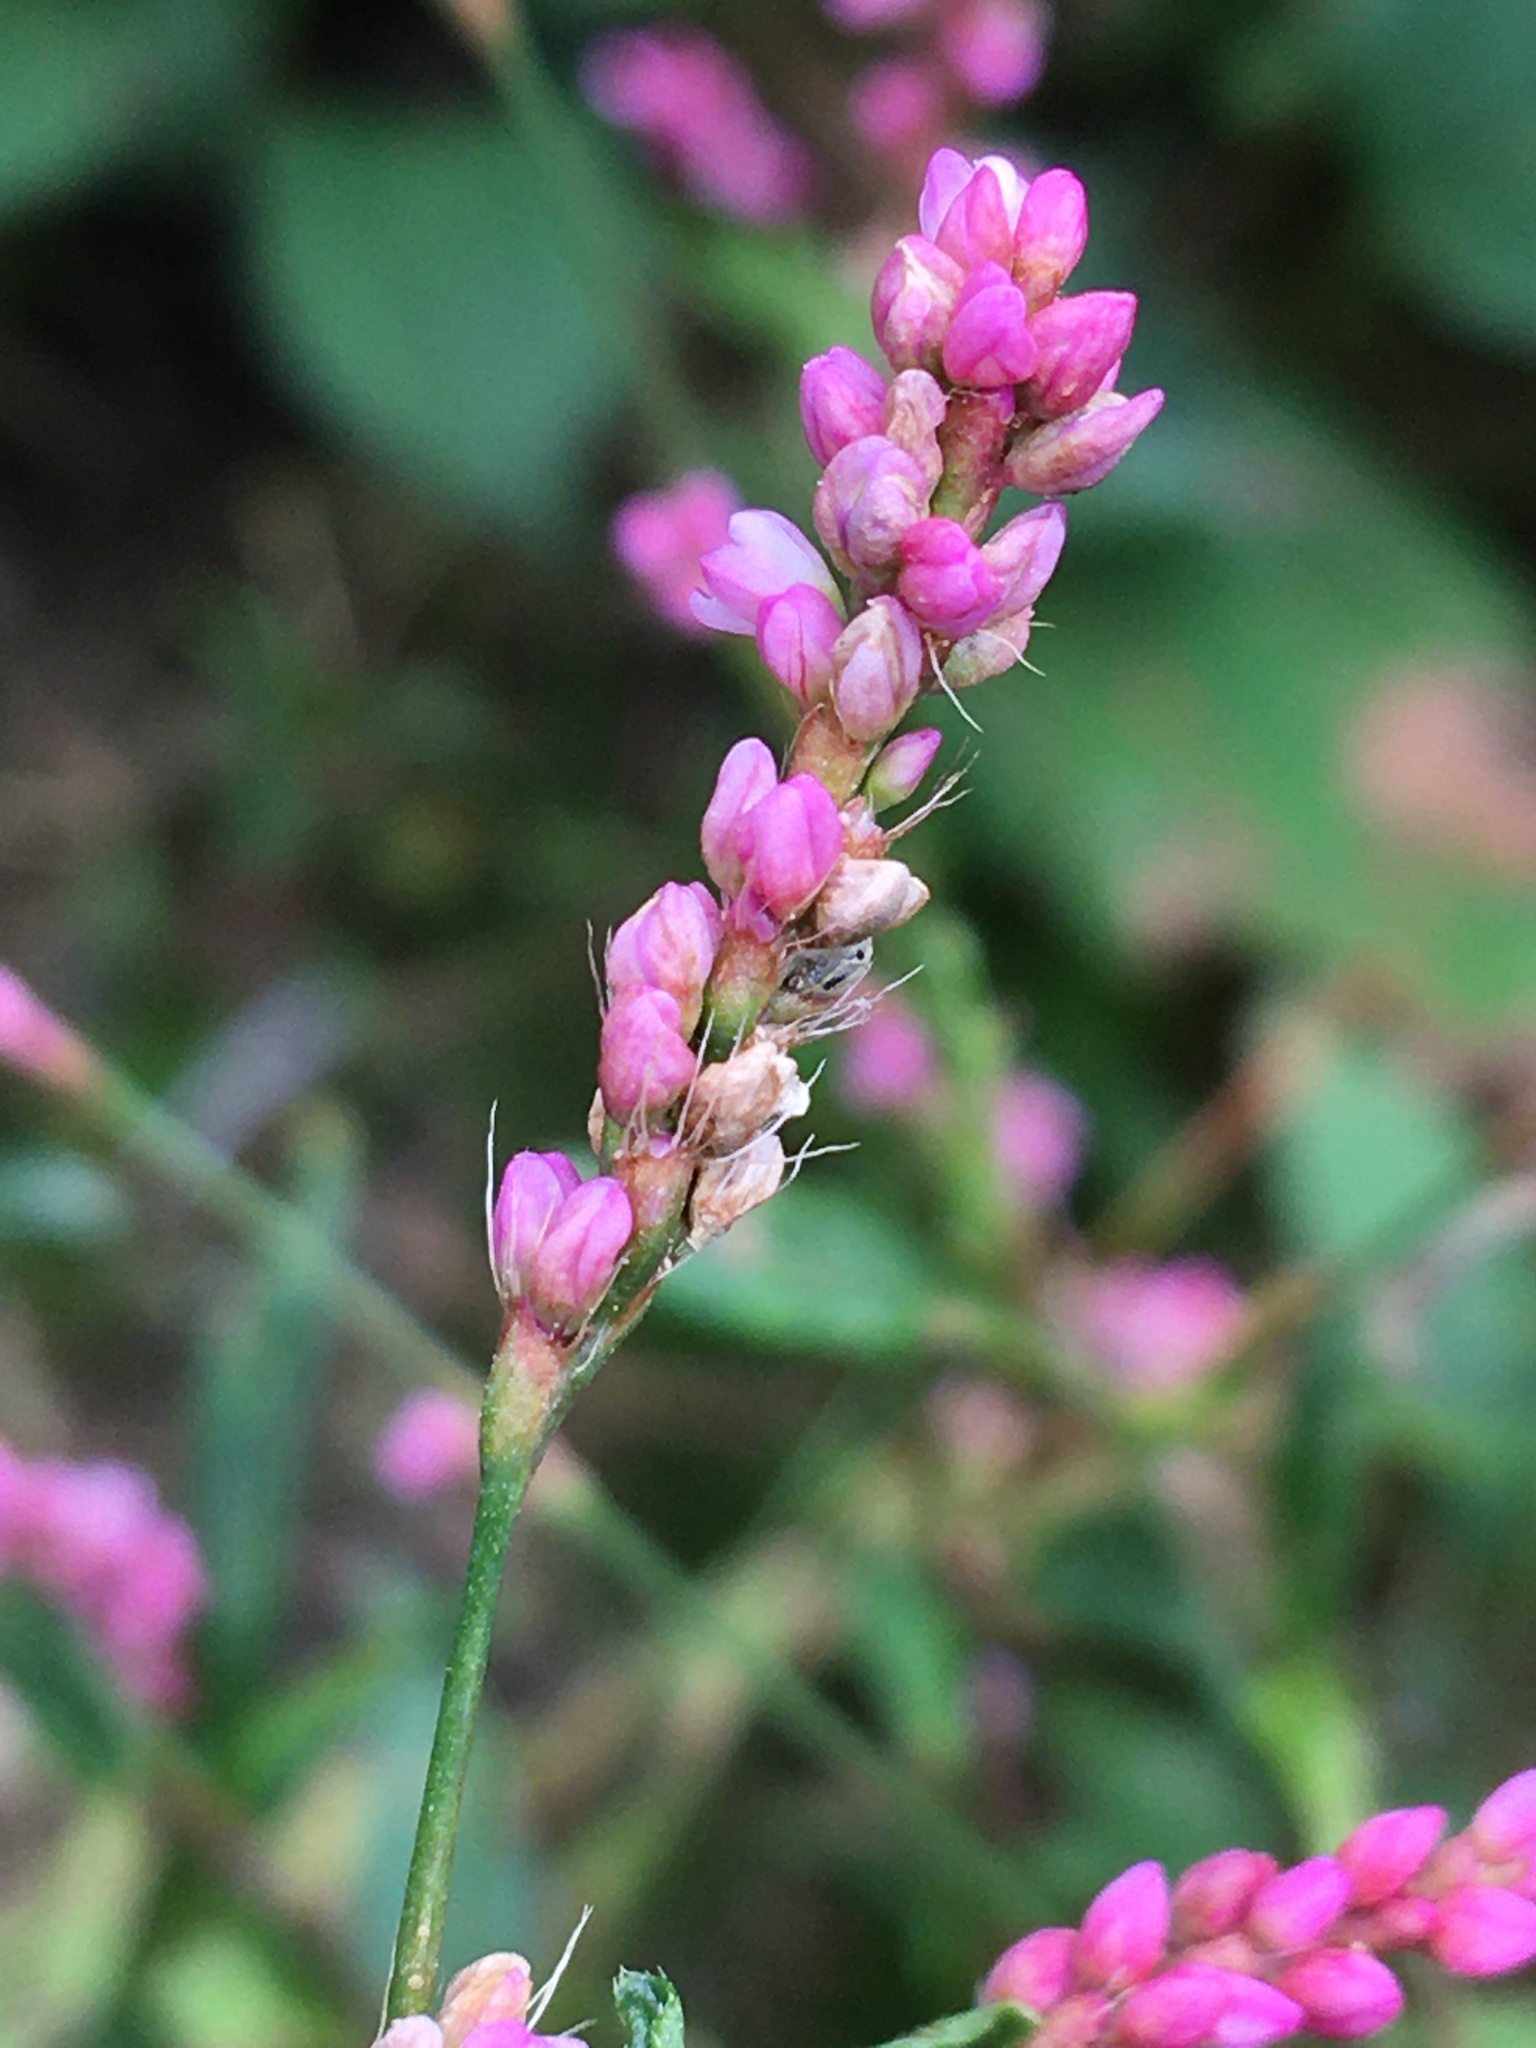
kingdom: Plantae
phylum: Tracheophyta
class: Magnoliopsida
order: Caryophyllales
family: Polygonaceae
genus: Persicaria
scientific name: Persicaria longiseta
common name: Bristly lady's-thumb
